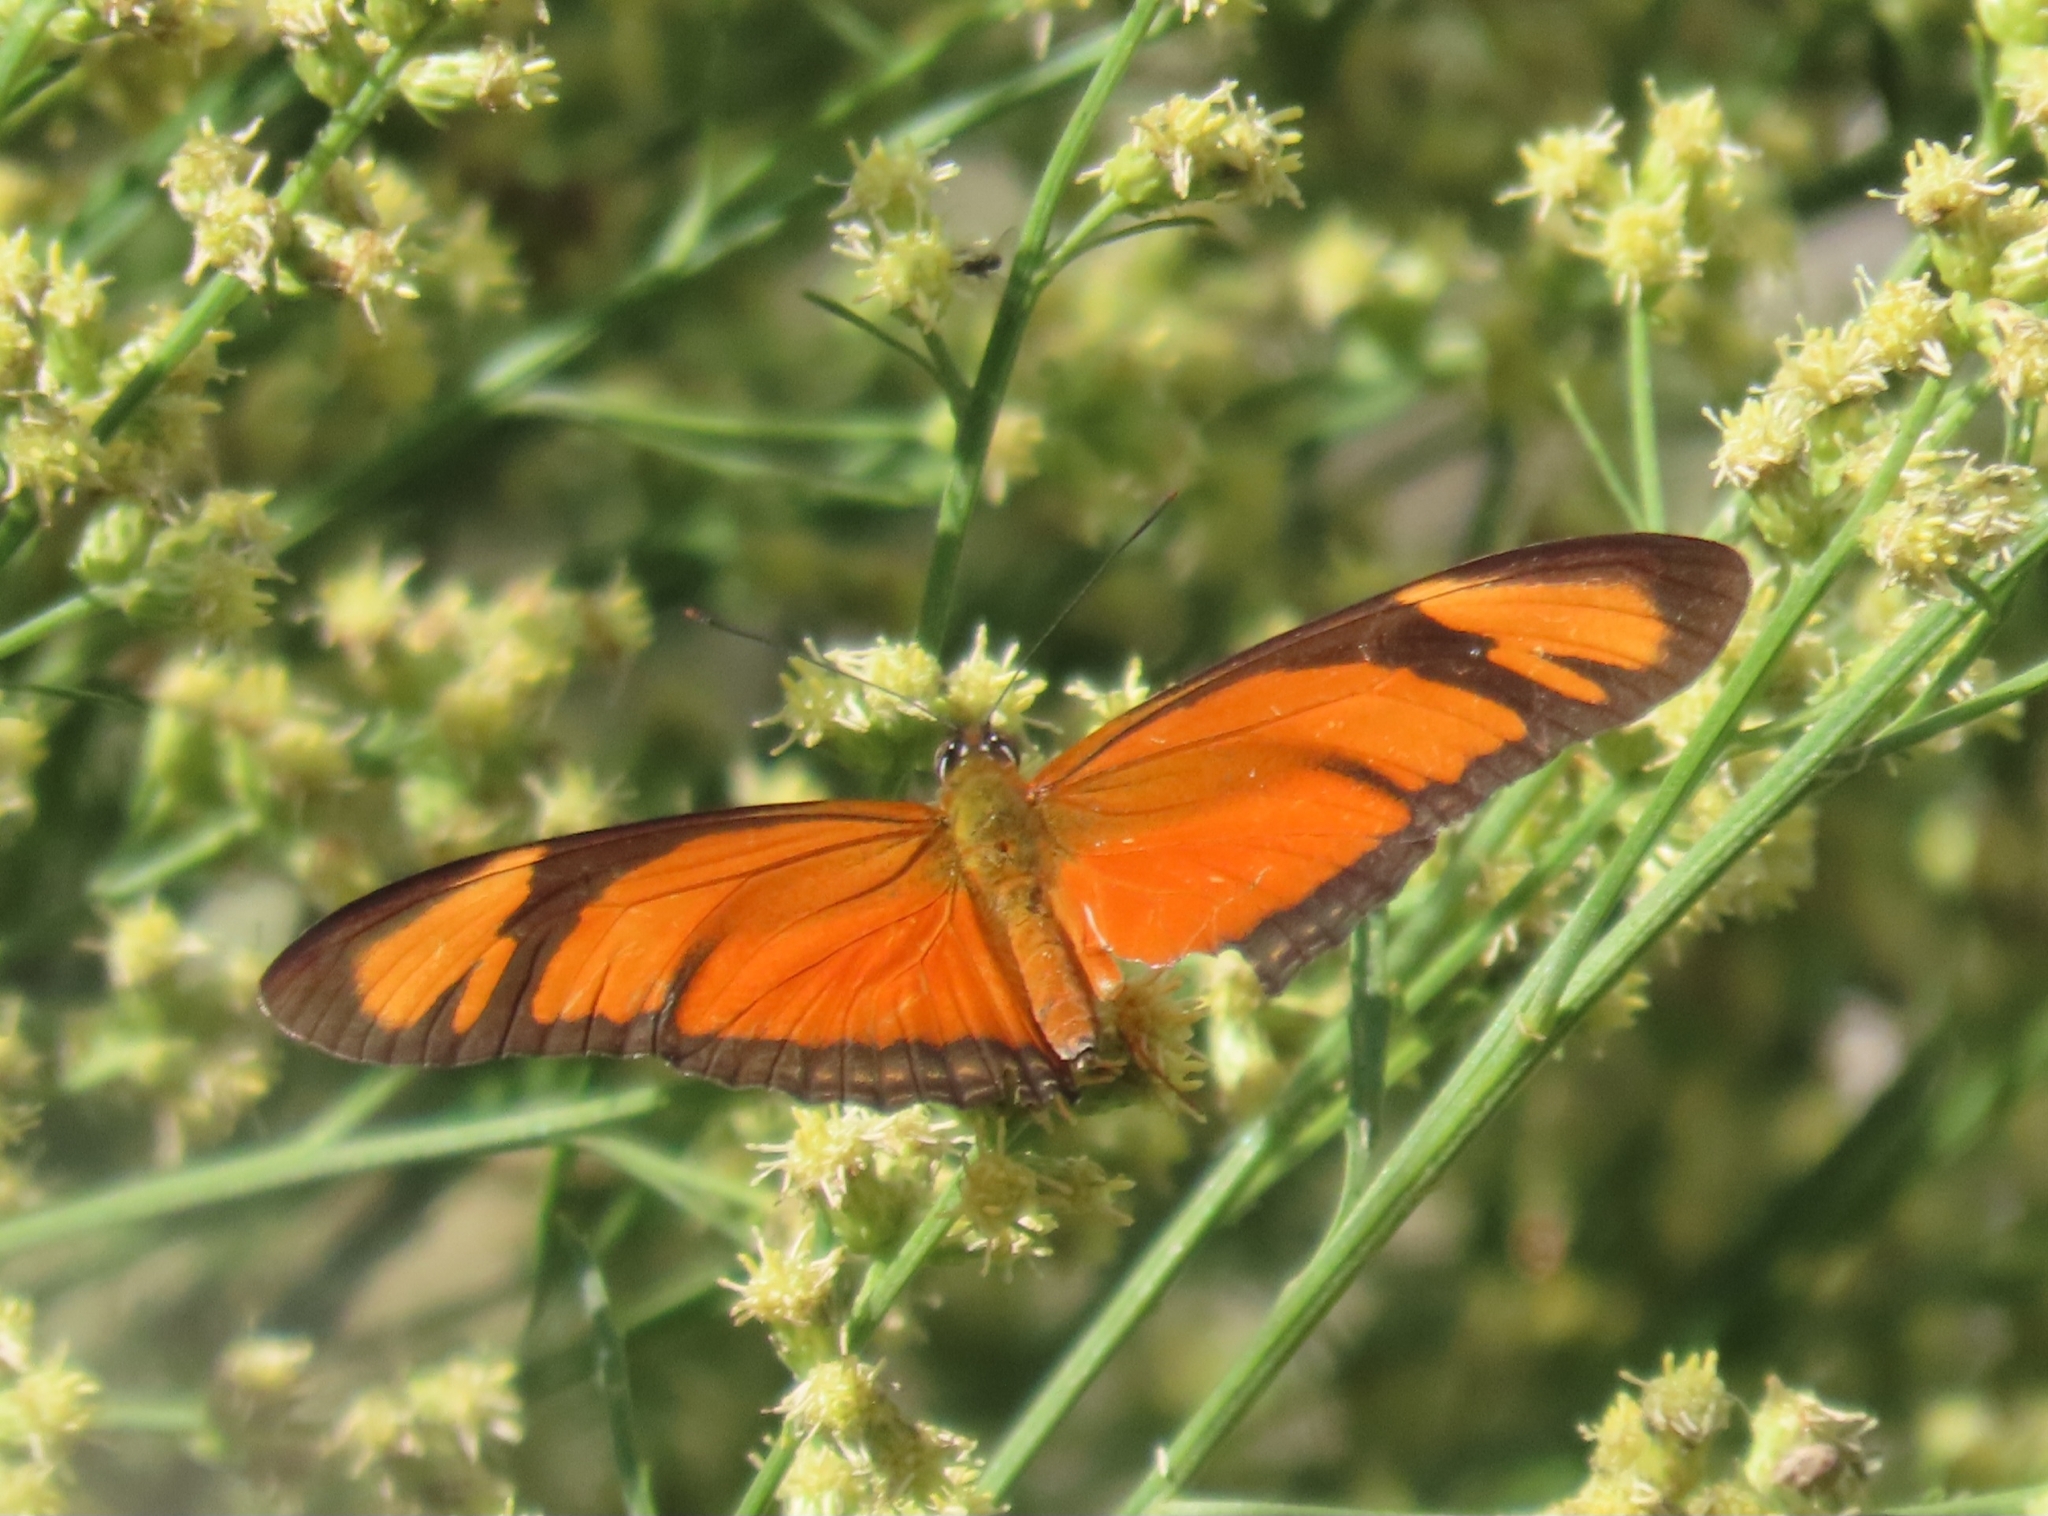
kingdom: Animalia
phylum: Arthropoda
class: Insecta
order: Lepidoptera
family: Nymphalidae
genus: Dryas
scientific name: Dryas iulia
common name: Flambeau
